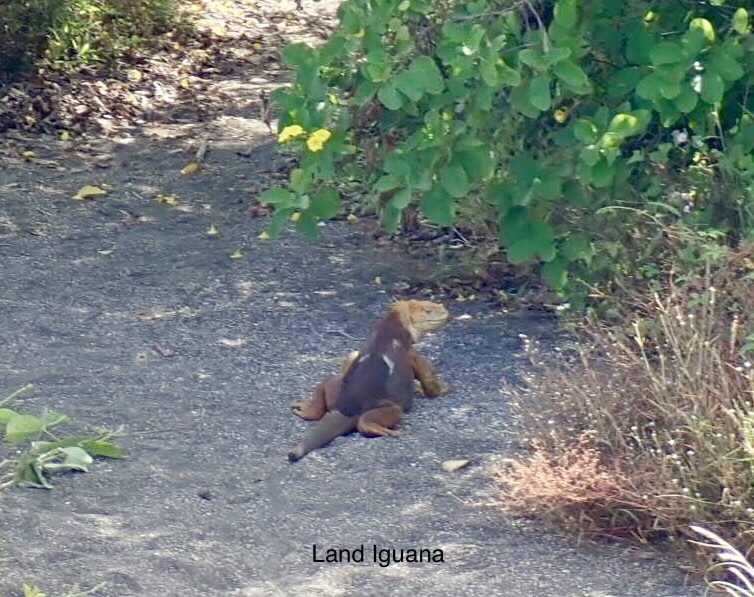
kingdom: Animalia
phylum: Chordata
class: Squamata
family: Iguanidae
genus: Conolophus
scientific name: Conolophus subcristatus
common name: Galapagos land iguana
